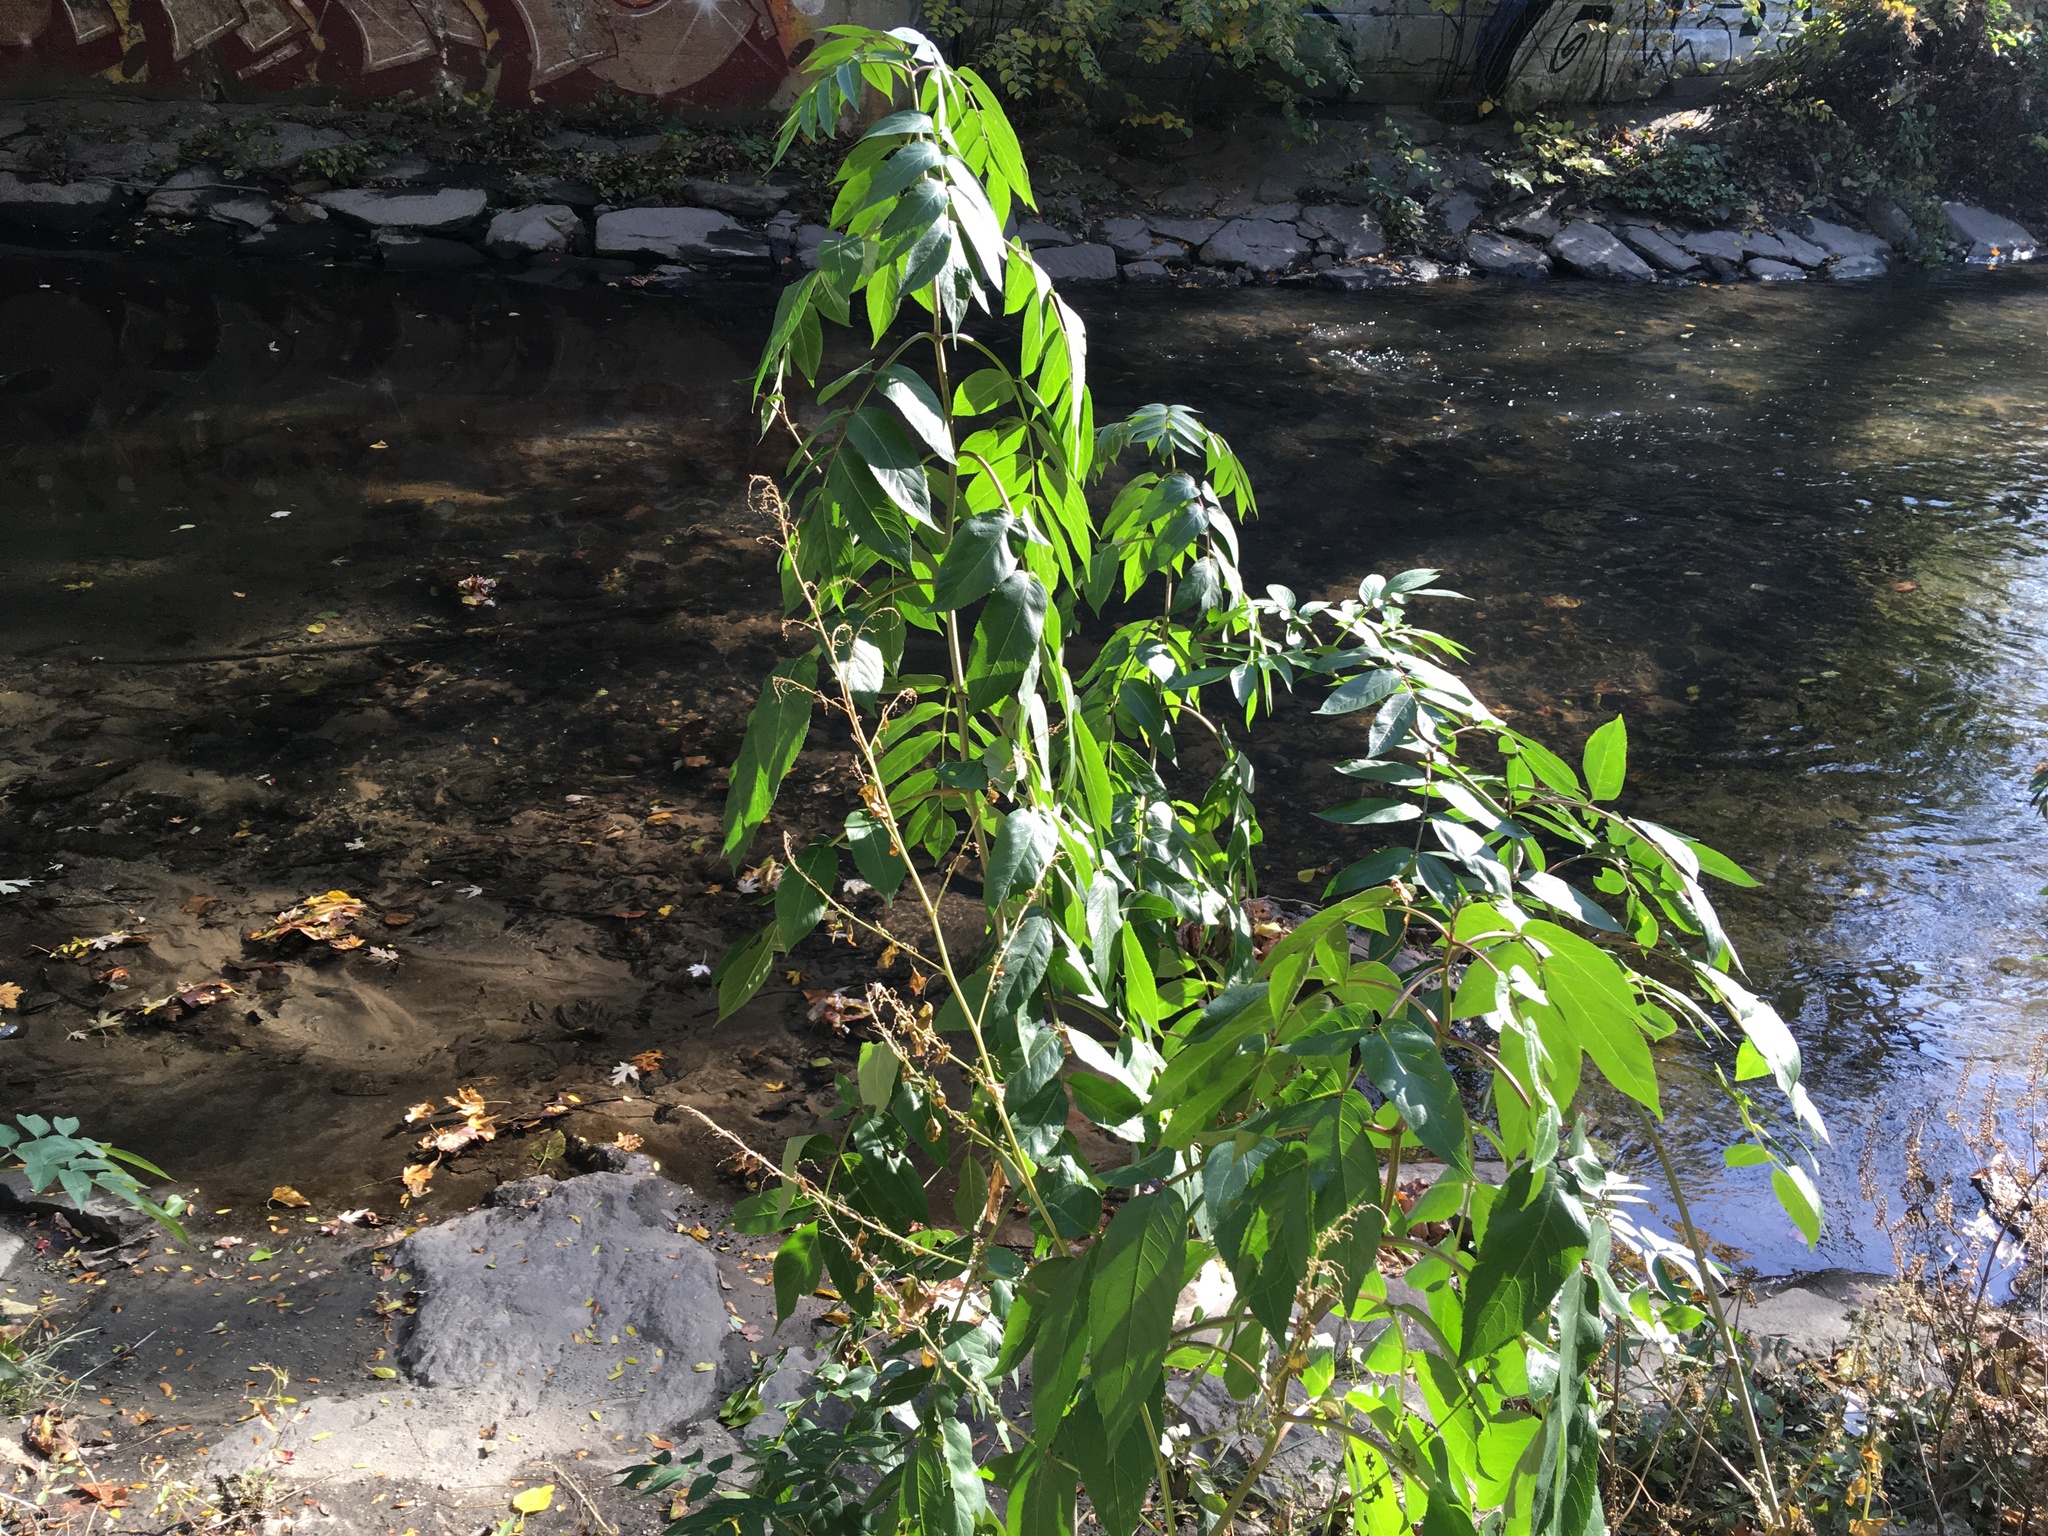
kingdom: Plantae
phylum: Tracheophyta
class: Magnoliopsida
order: Dipsacales
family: Viburnaceae
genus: Sambucus
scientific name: Sambucus canadensis
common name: American elder
